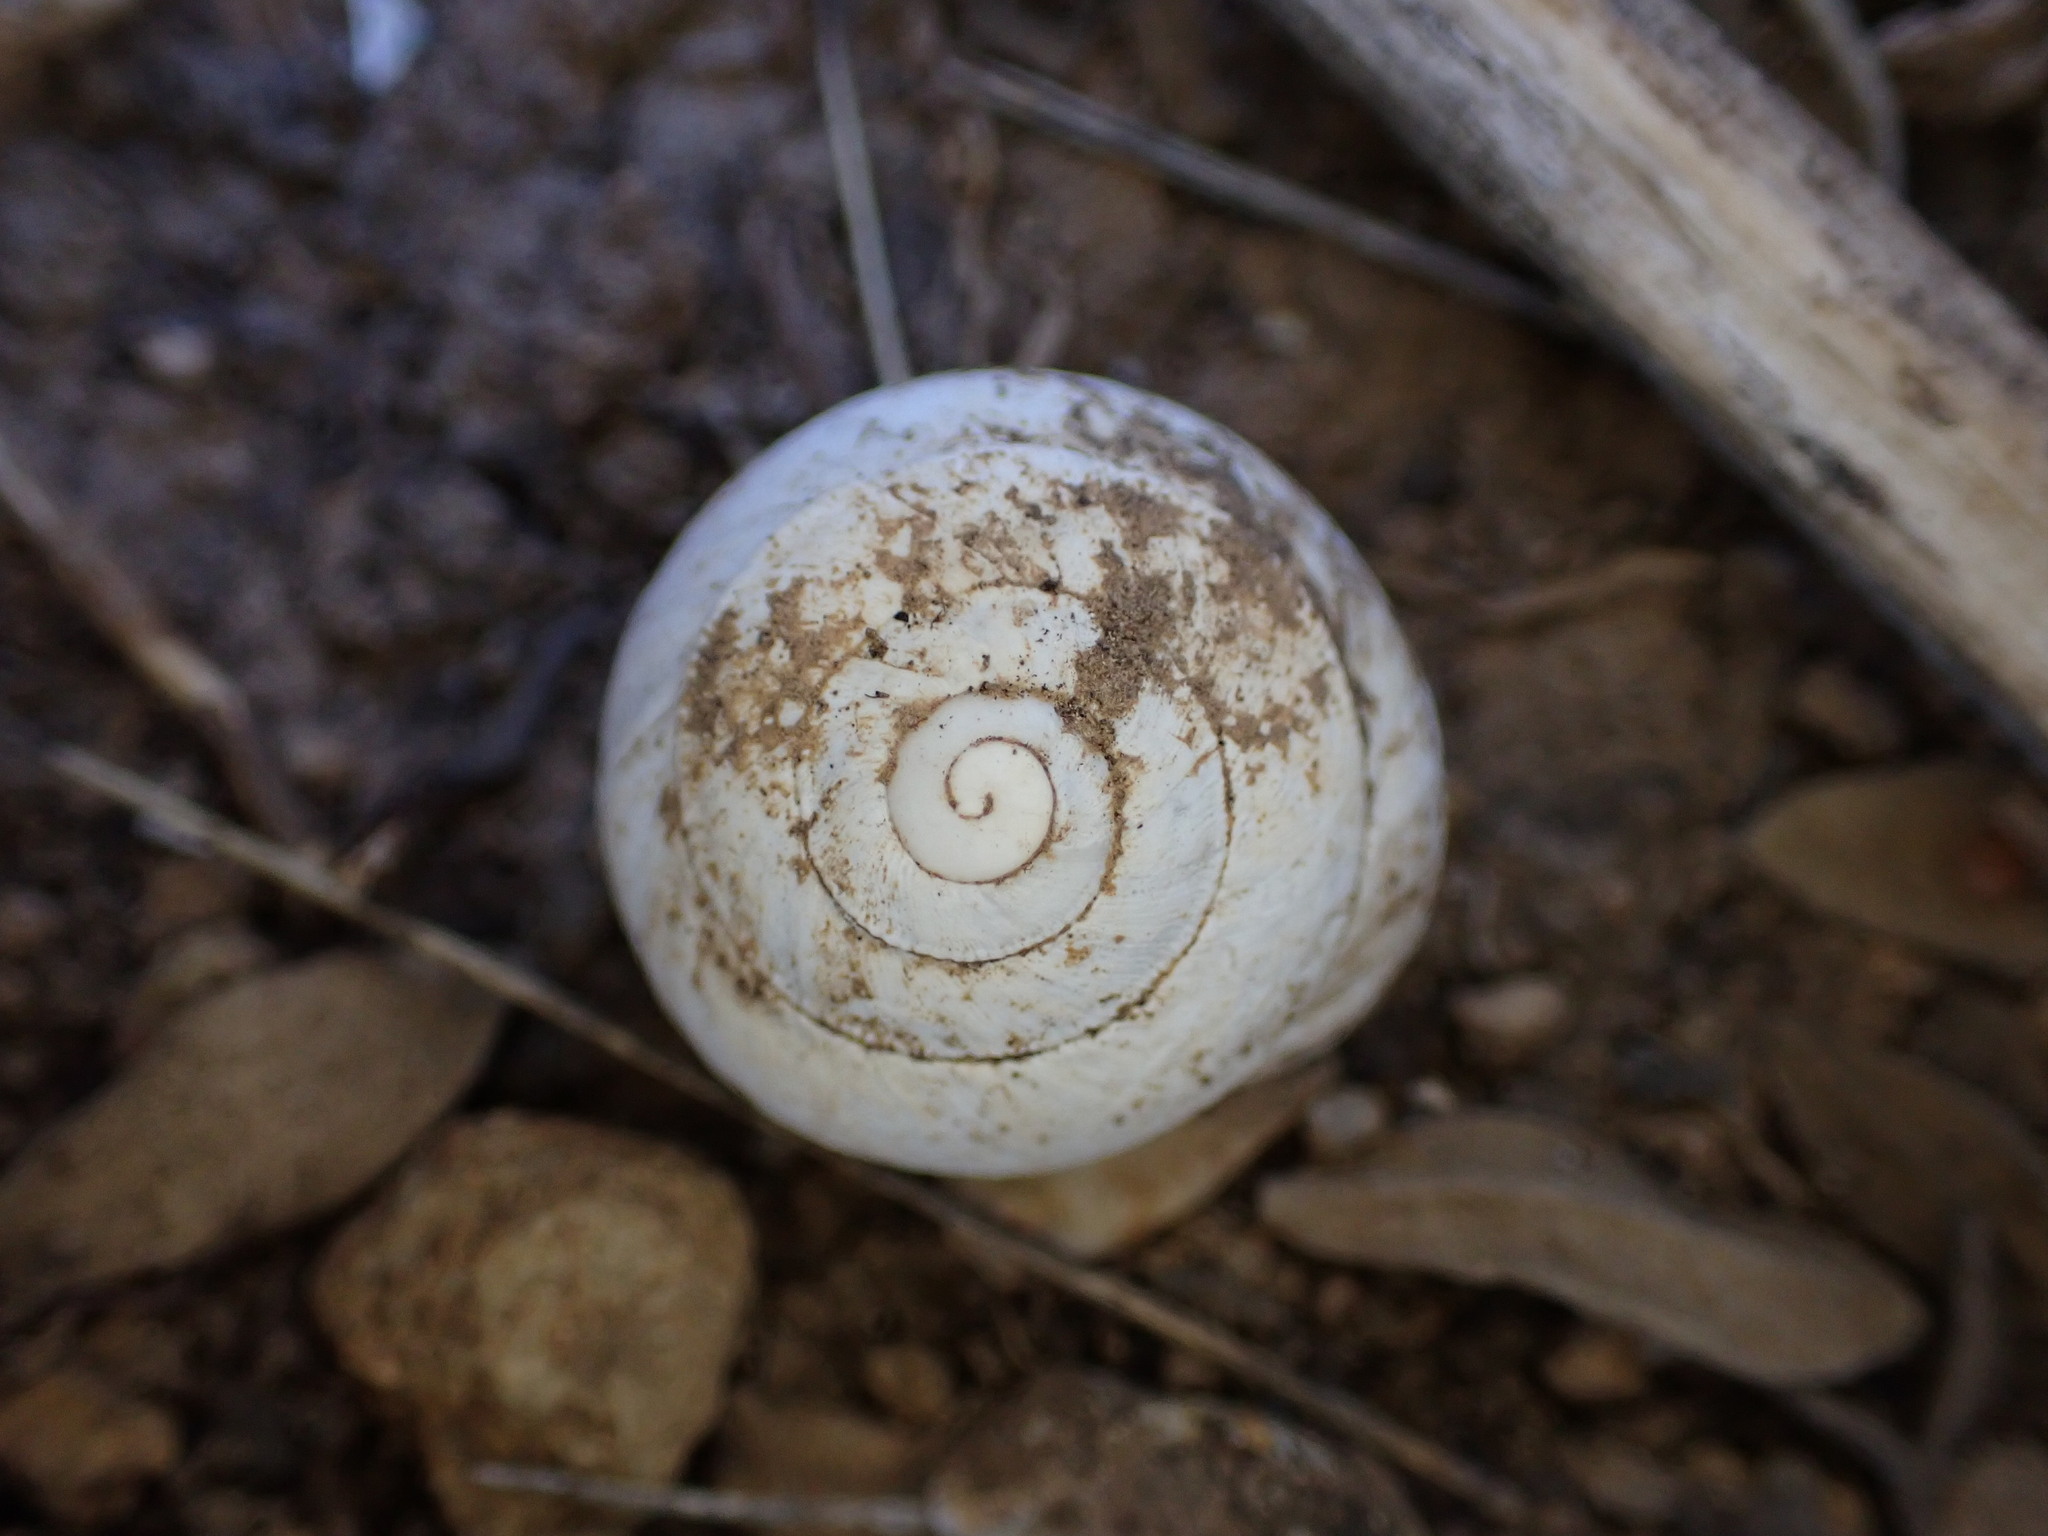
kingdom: Animalia
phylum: Mollusca
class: Gastropoda
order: Stylommatophora
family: Sphincterochilidae
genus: Sphincterochila
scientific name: Sphincterochila candidissima
